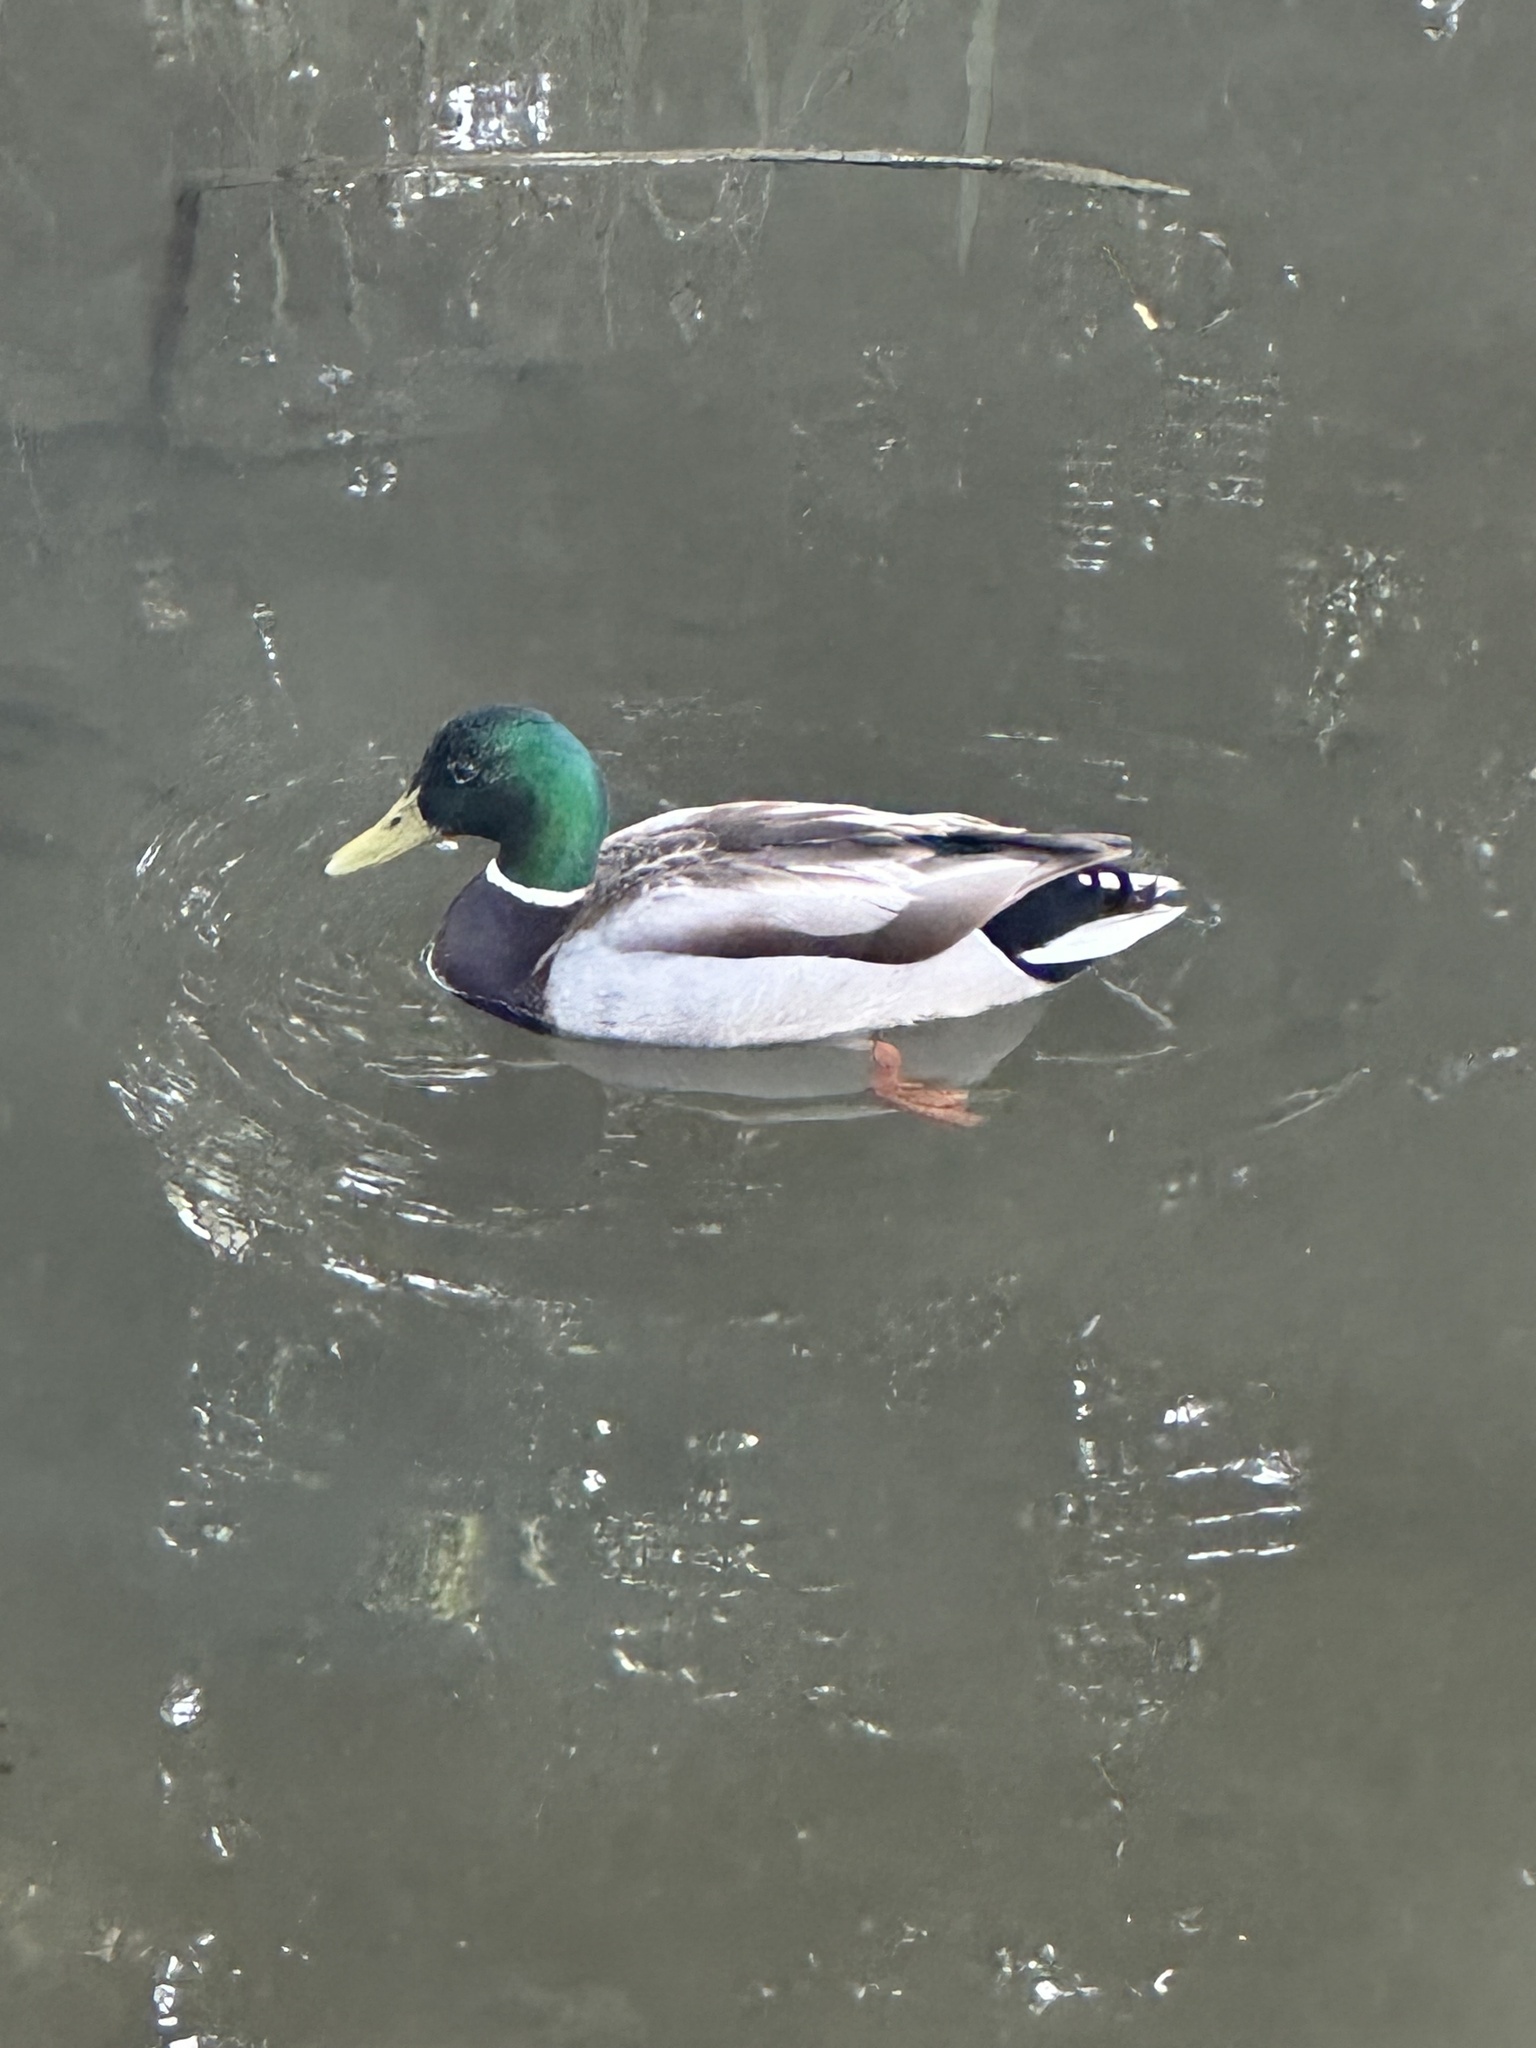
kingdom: Animalia
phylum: Chordata
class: Aves
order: Anseriformes
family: Anatidae
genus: Anas
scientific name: Anas platyrhynchos
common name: Mallard
